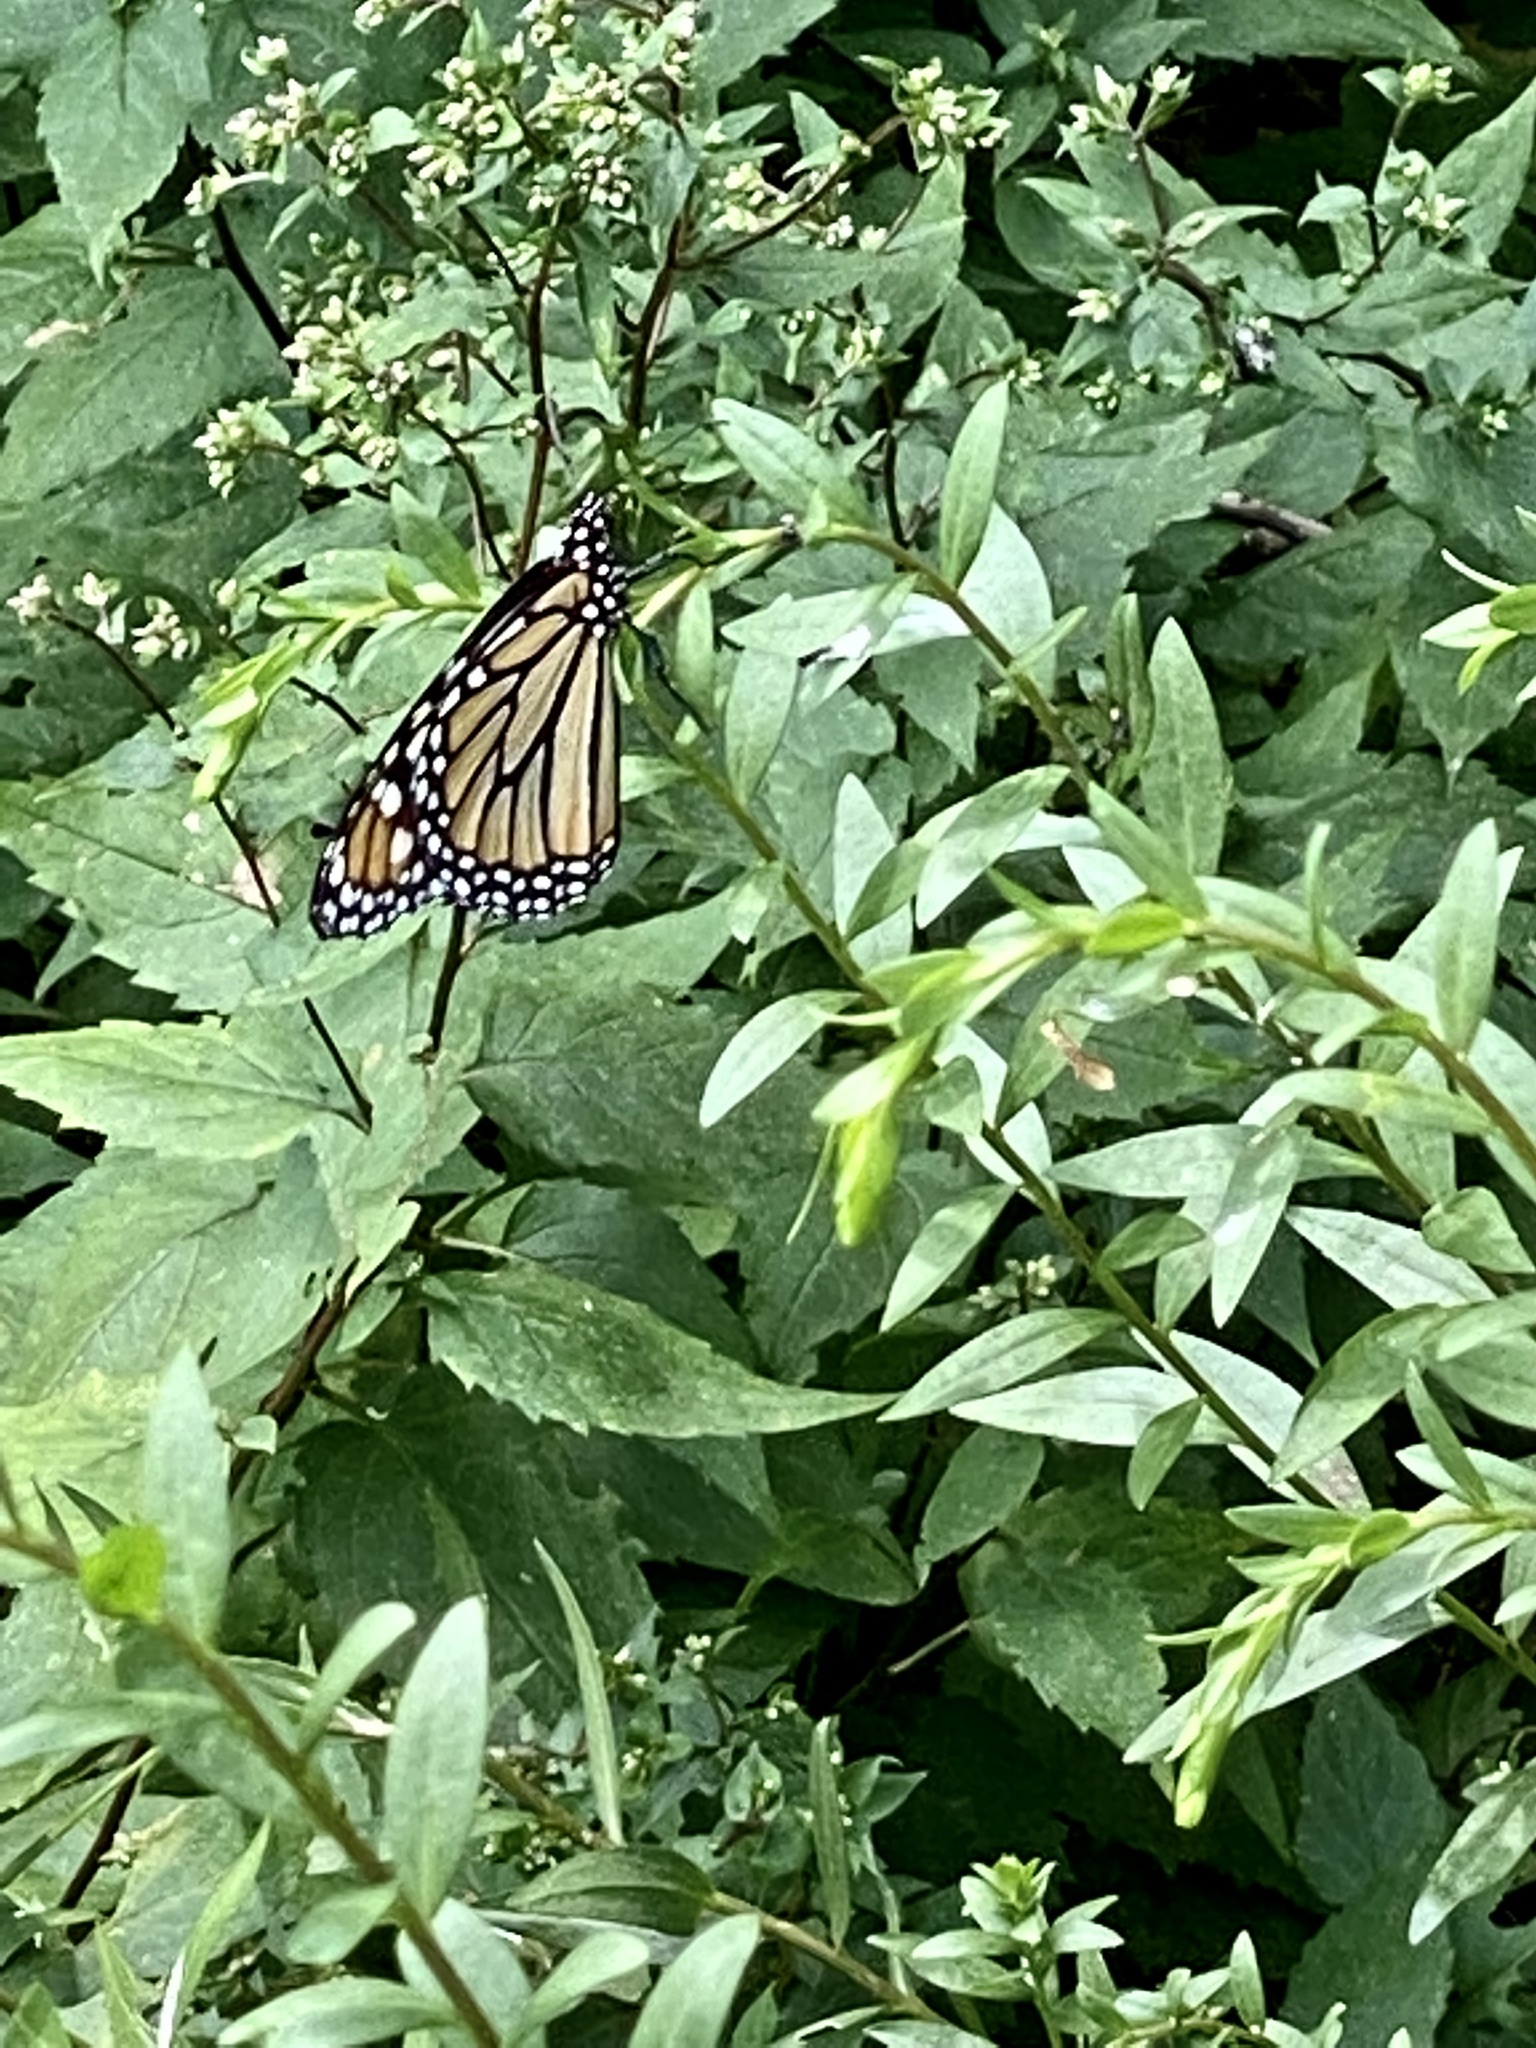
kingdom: Animalia
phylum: Arthropoda
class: Insecta
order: Lepidoptera
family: Nymphalidae
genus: Danaus
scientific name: Danaus plexippus
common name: Monarch
